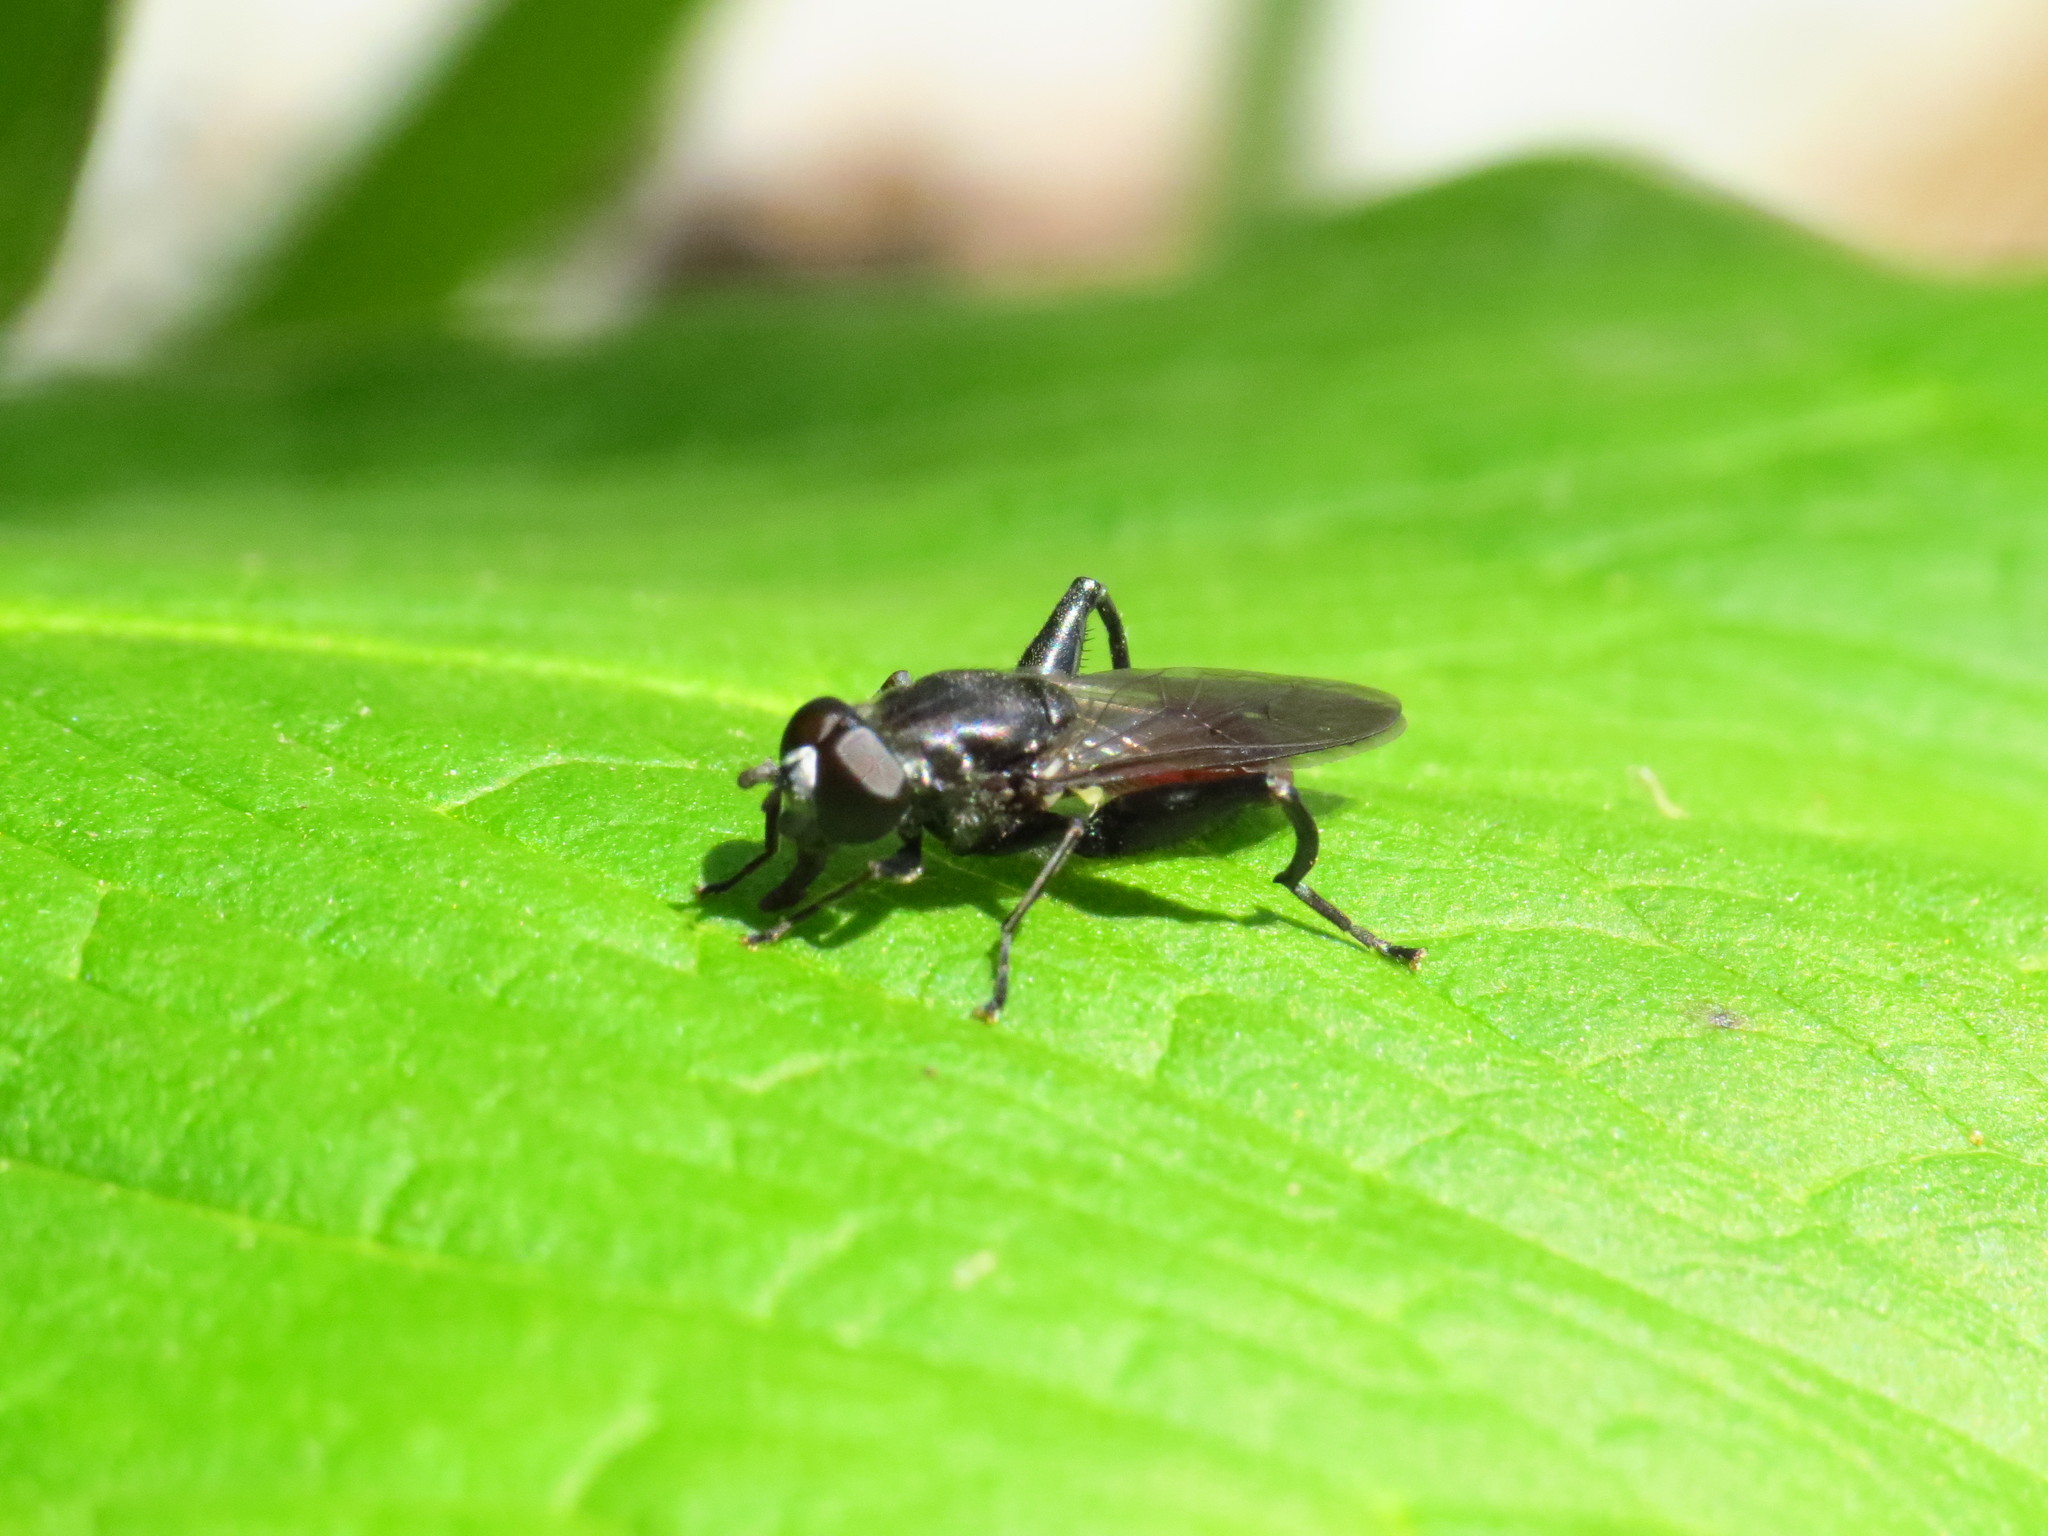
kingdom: Animalia
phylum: Arthropoda
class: Insecta
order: Diptera
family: Syrphidae
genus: Chalcosyrphus
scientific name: Chalcosyrphus piger
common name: Short-haired leafwalker
